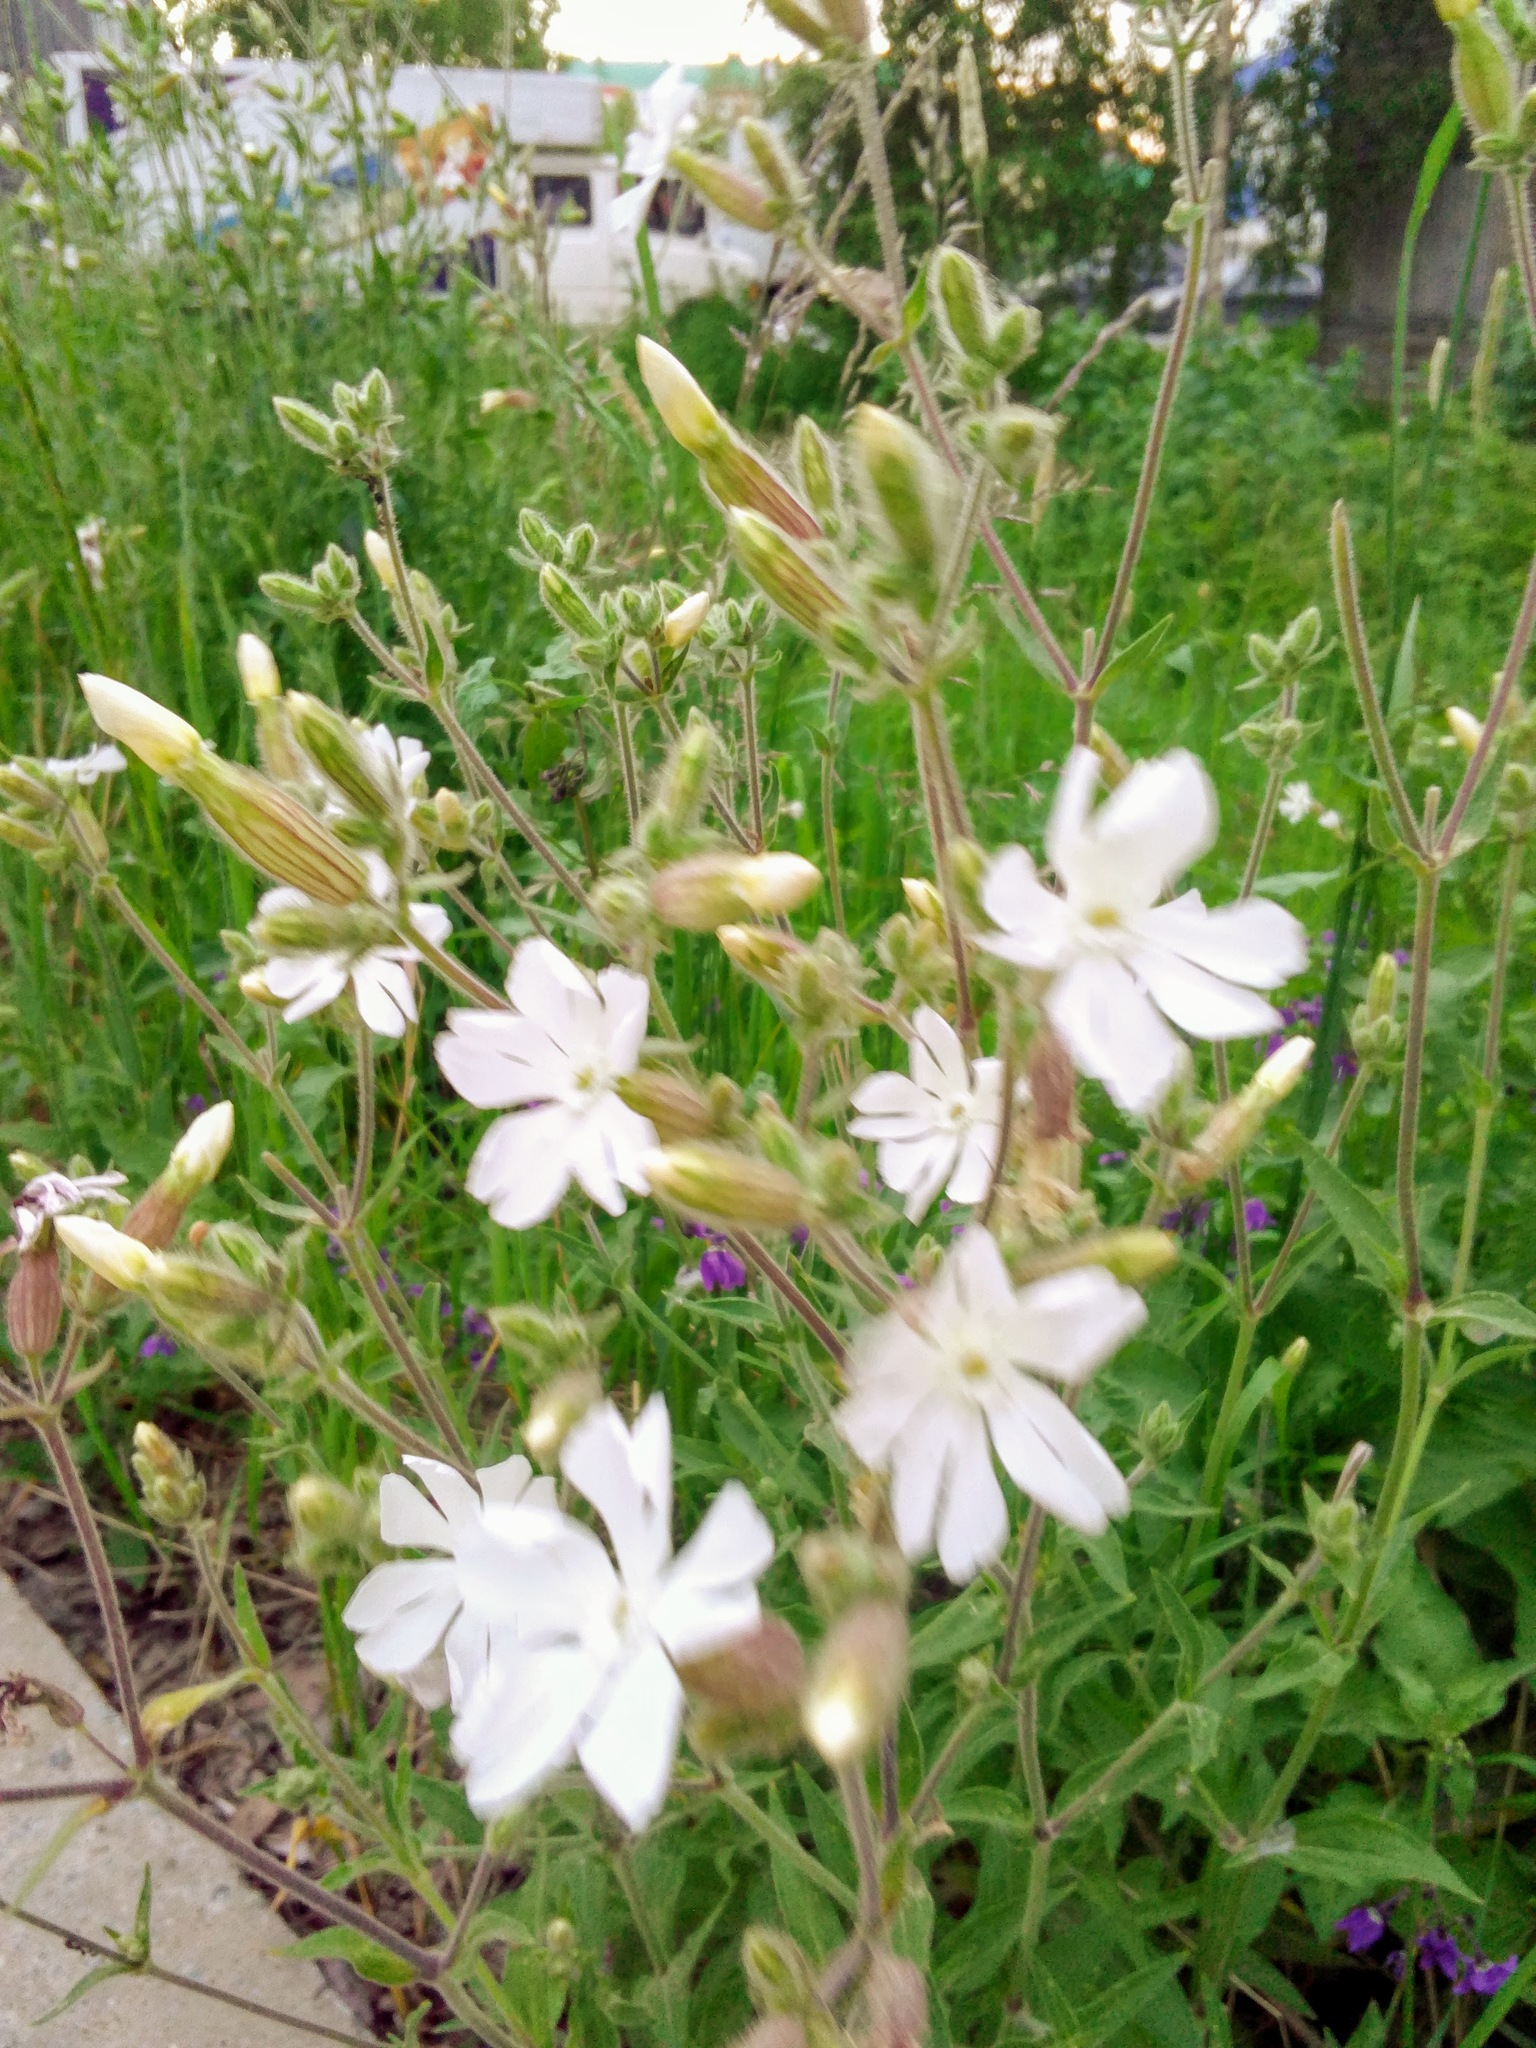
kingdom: Plantae
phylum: Tracheophyta
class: Magnoliopsida
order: Caryophyllales
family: Caryophyllaceae
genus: Silene
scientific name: Silene latifolia
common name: White campion
